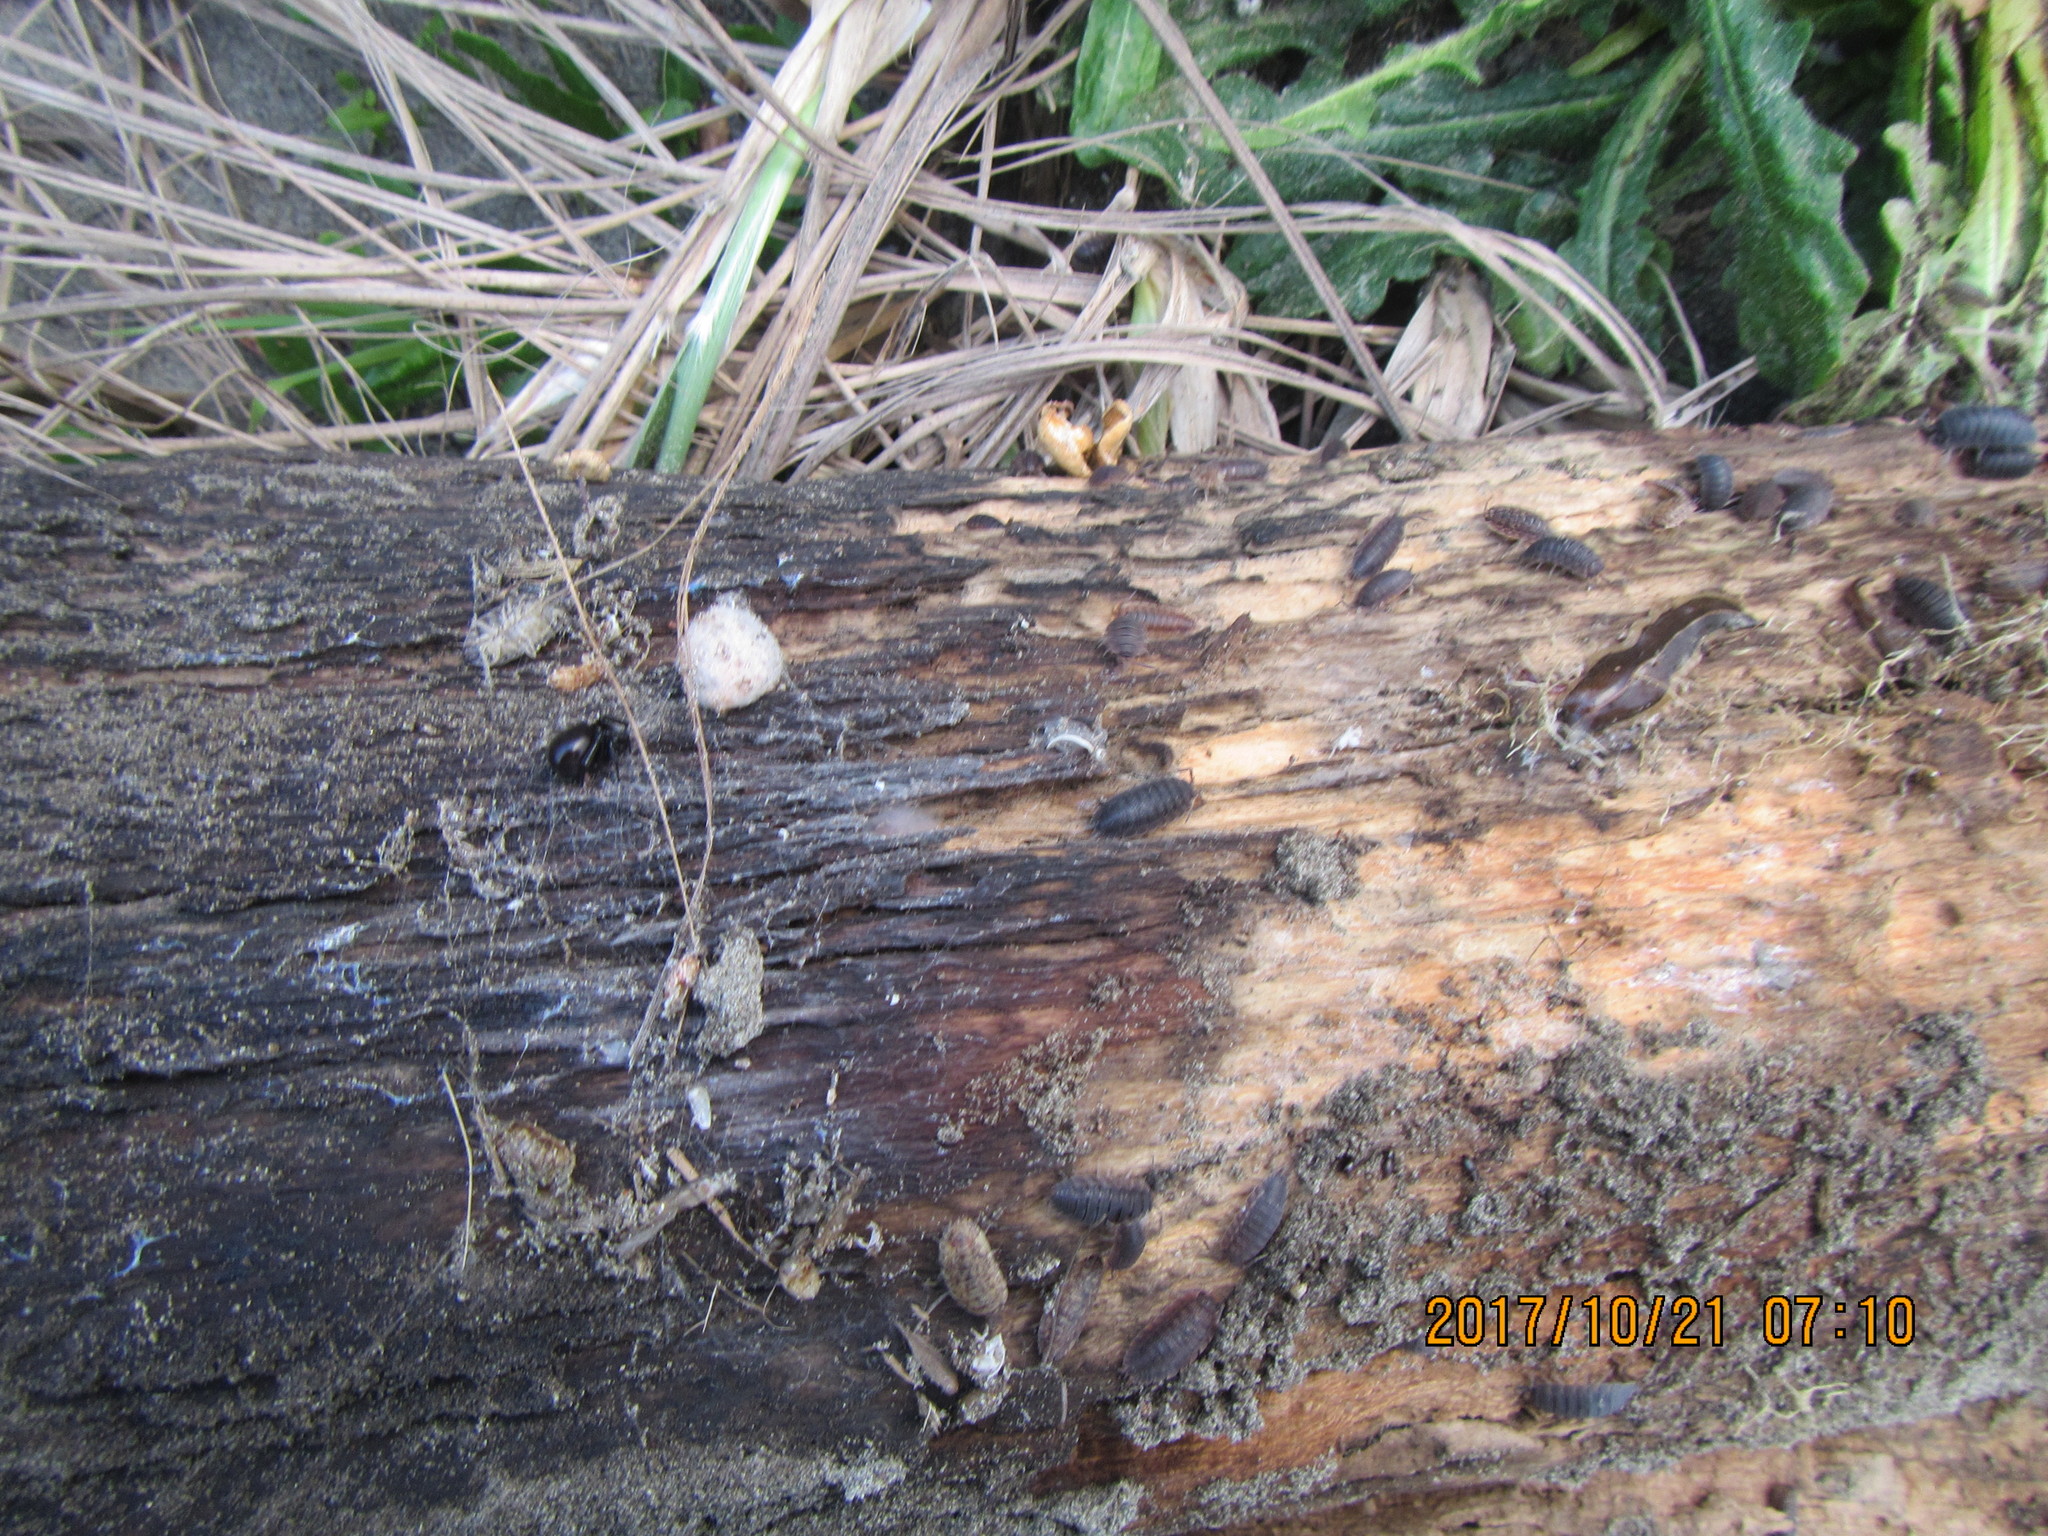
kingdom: Animalia
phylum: Arthropoda
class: Malacostraca
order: Isopoda
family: Porcellionidae
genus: Porcellio
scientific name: Porcellio scaber
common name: Common rough woodlouse
